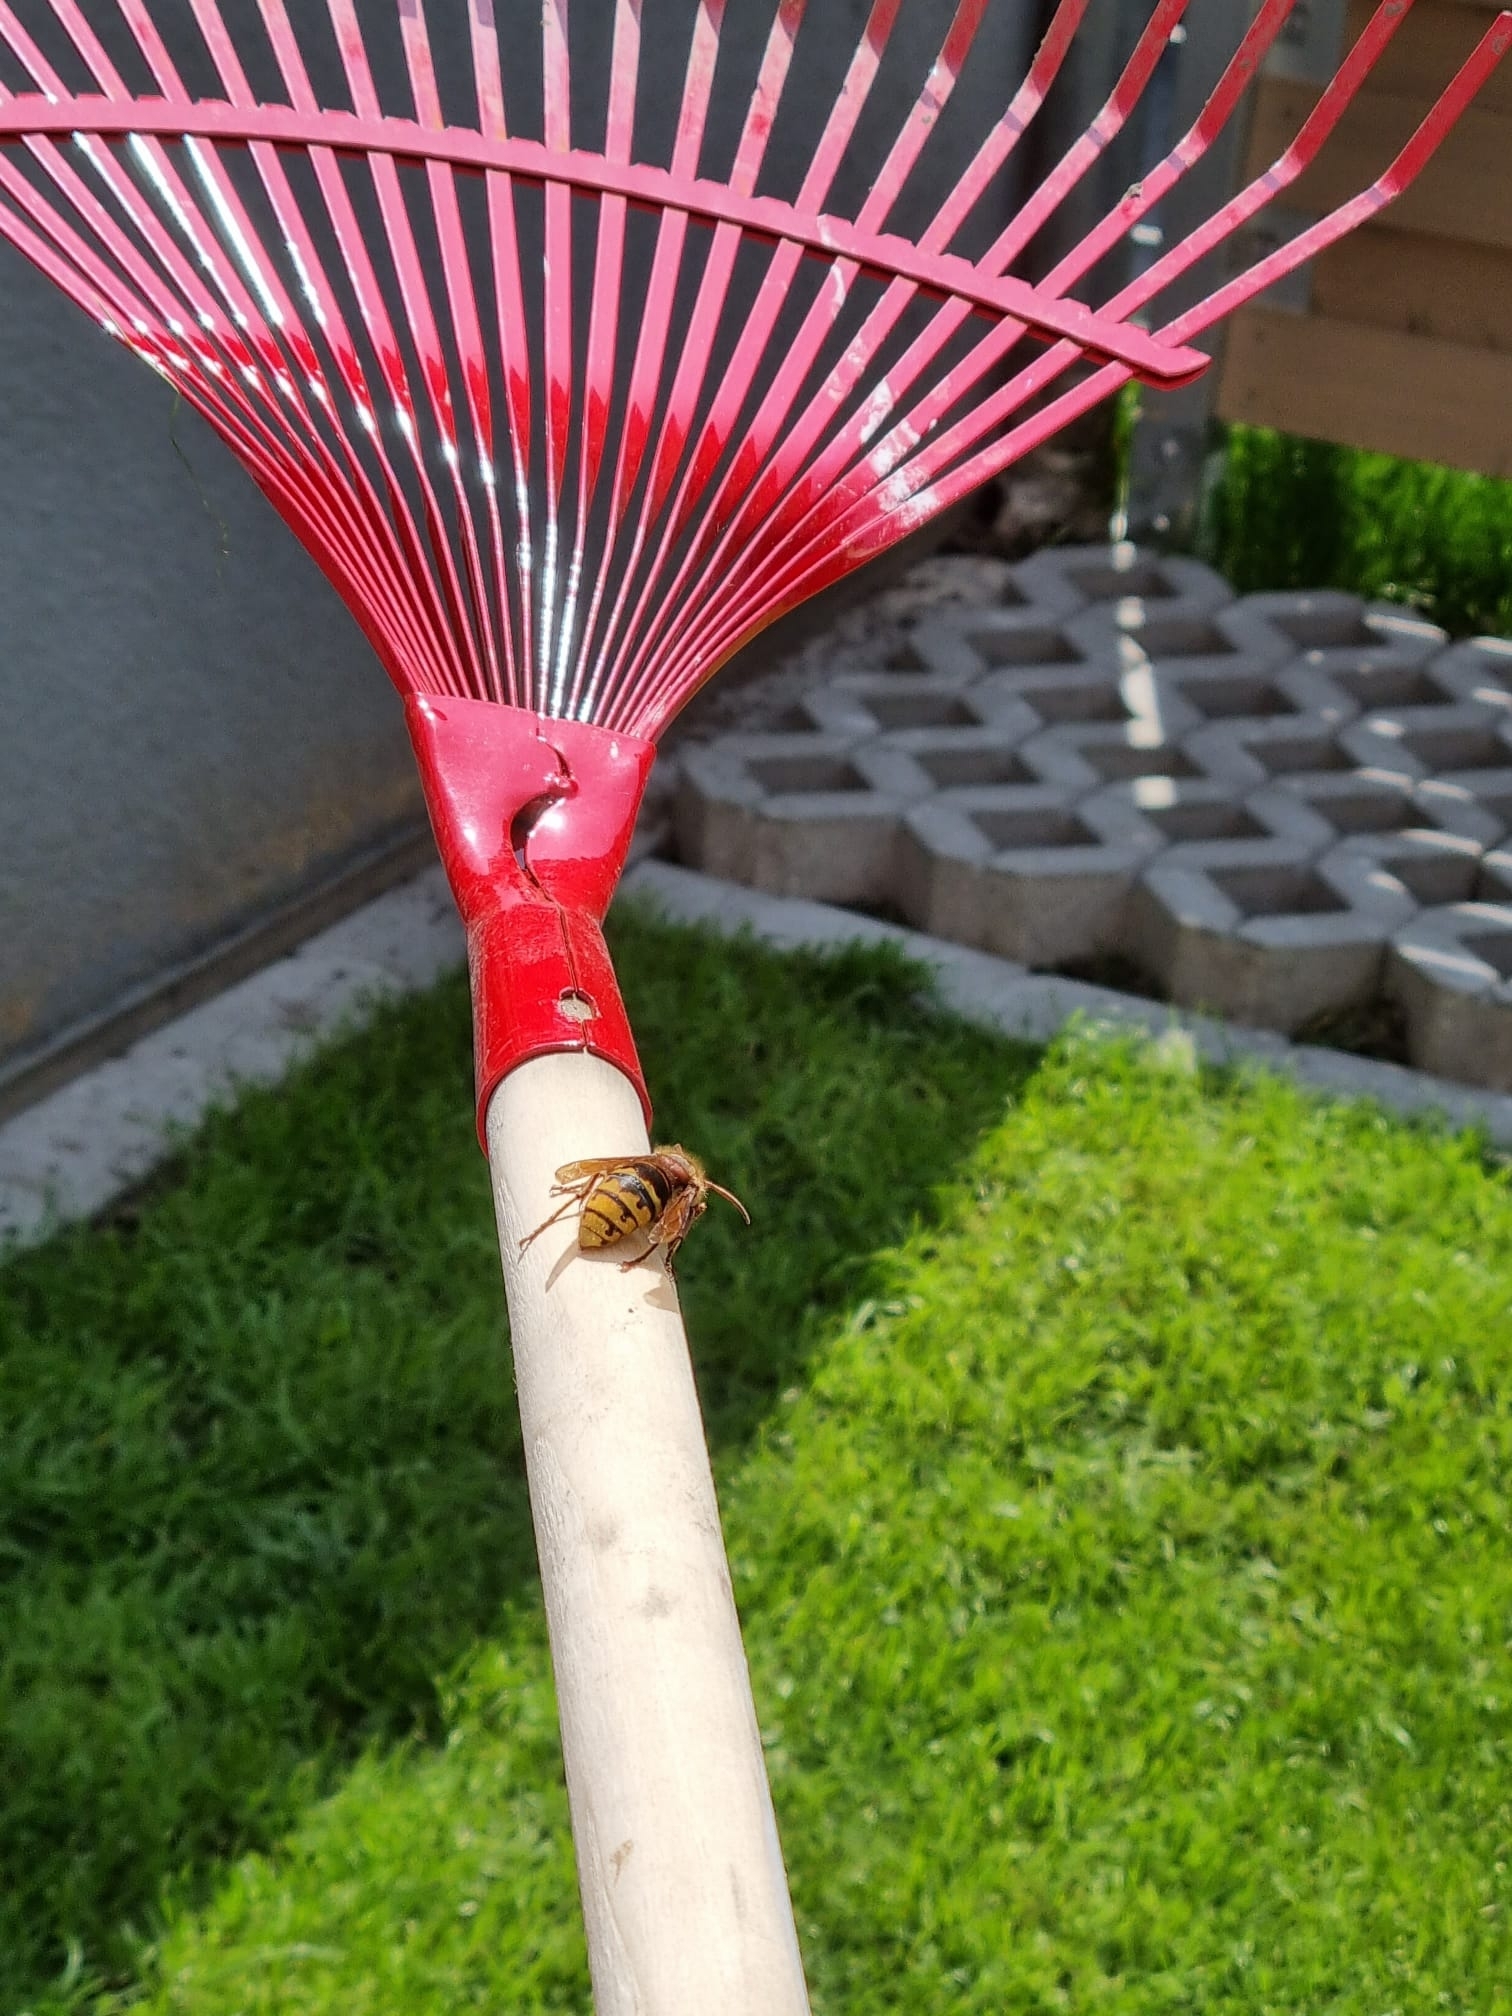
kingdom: Animalia
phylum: Arthropoda
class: Insecta
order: Hymenoptera
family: Vespidae
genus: Vespa
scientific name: Vespa crabro
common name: Hornet
